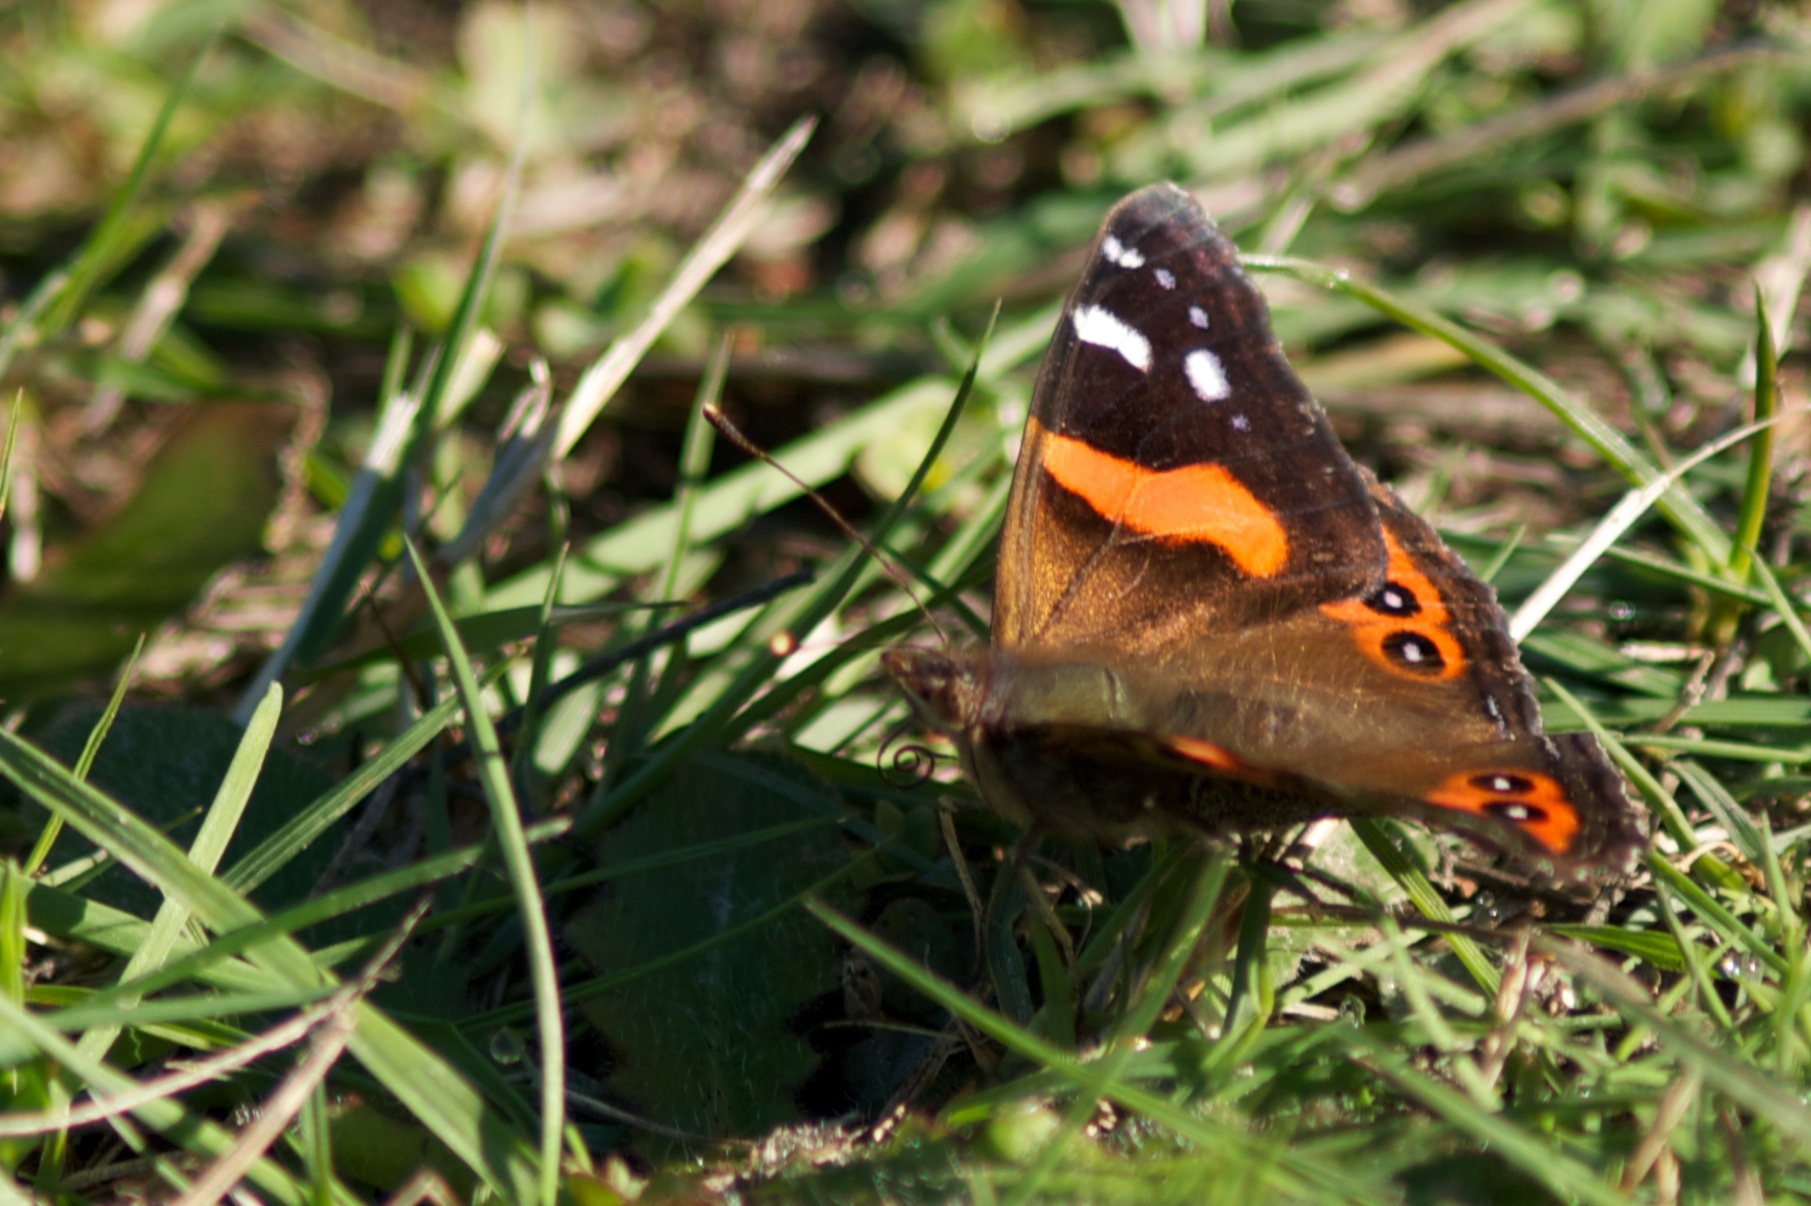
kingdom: Animalia
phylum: Arthropoda
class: Insecta
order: Lepidoptera
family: Nymphalidae
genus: Vanessa
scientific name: Vanessa gonerilla
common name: New zealand red admiral
